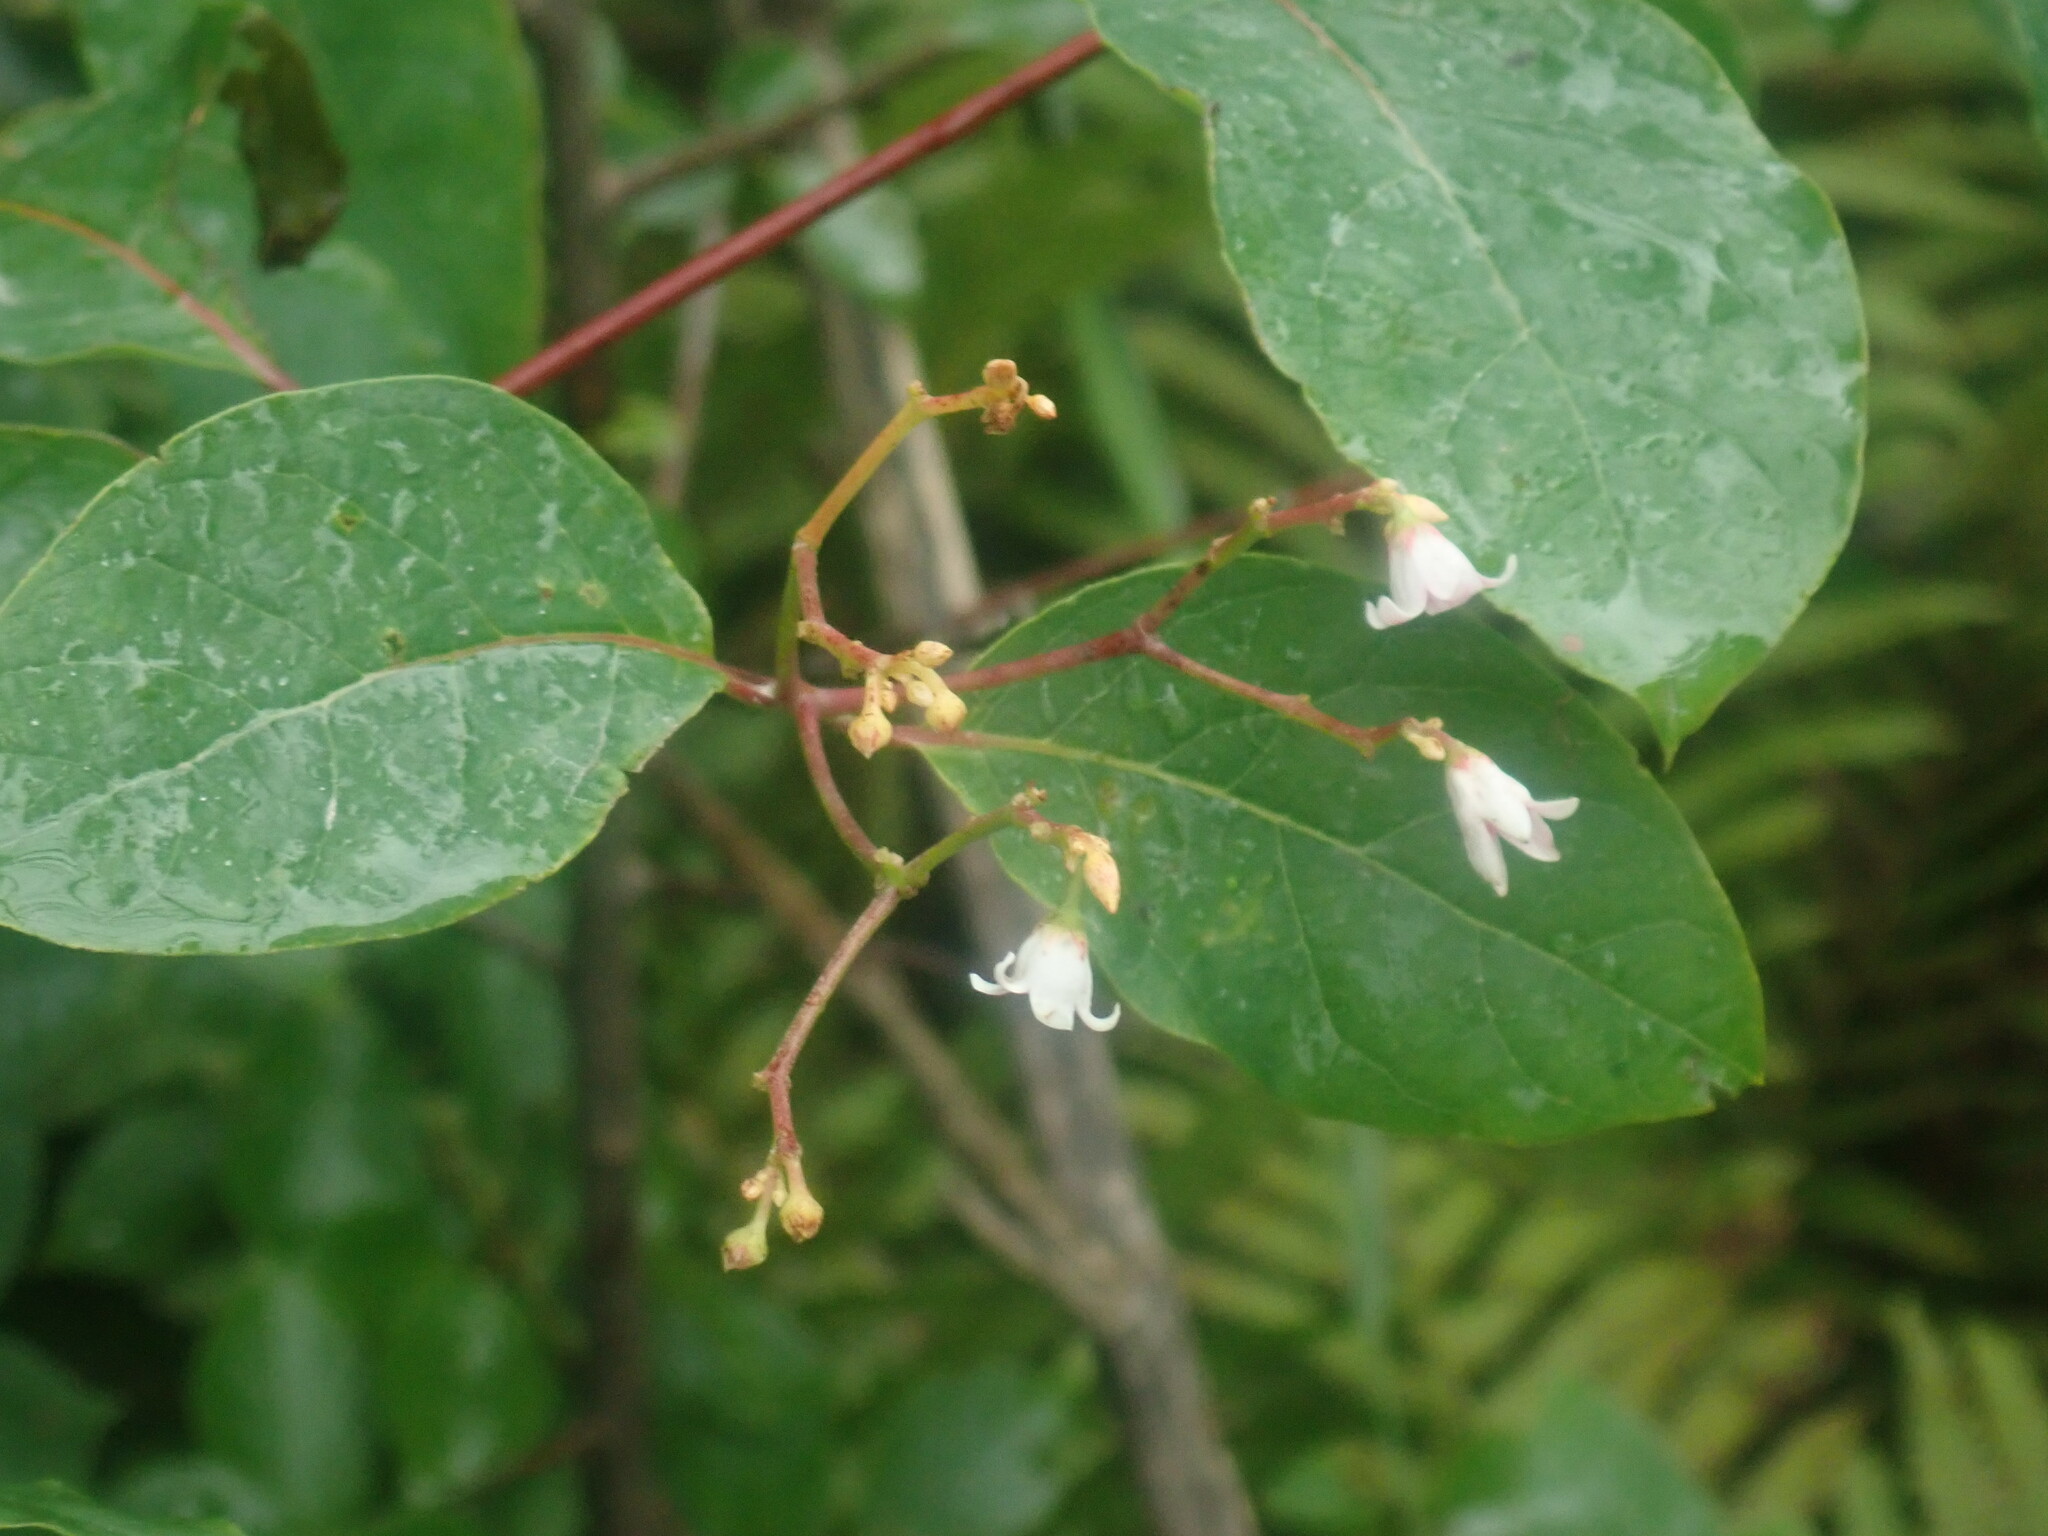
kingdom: Plantae
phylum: Tracheophyta
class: Magnoliopsida
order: Gentianales
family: Apocynaceae
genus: Apocynum
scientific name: Apocynum androsaemifolium
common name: Spreading dogbane
